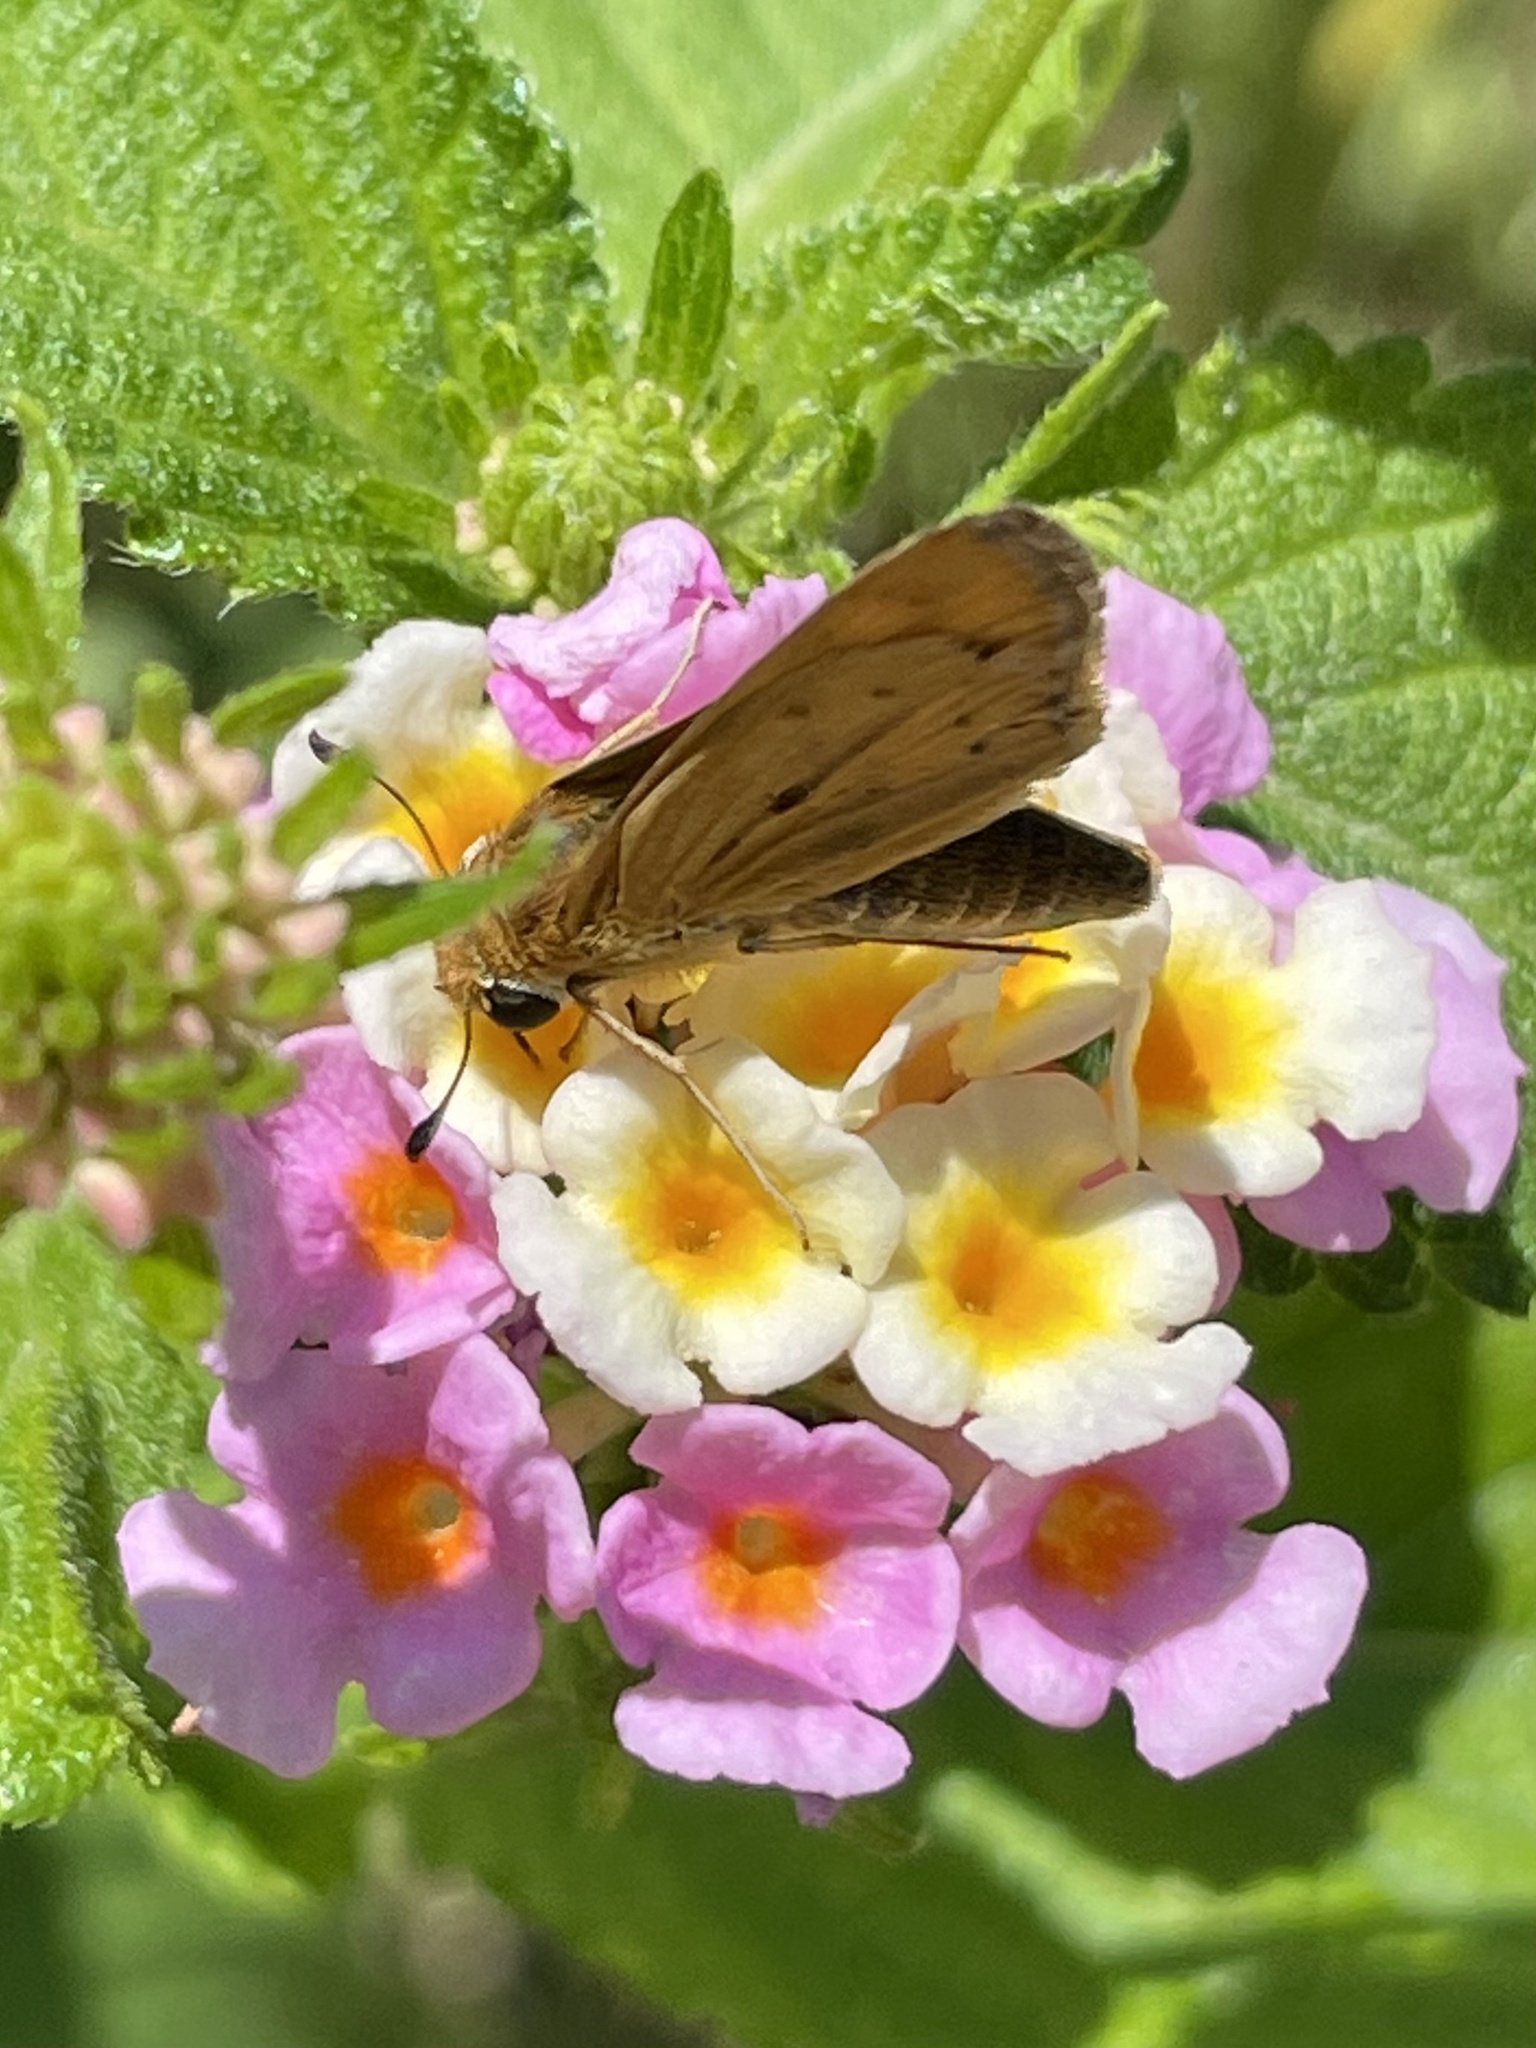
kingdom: Animalia
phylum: Arthropoda
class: Insecta
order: Lepidoptera
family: Hesperiidae
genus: Hylephila
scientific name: Hylephila phyleus
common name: Fiery skipper
